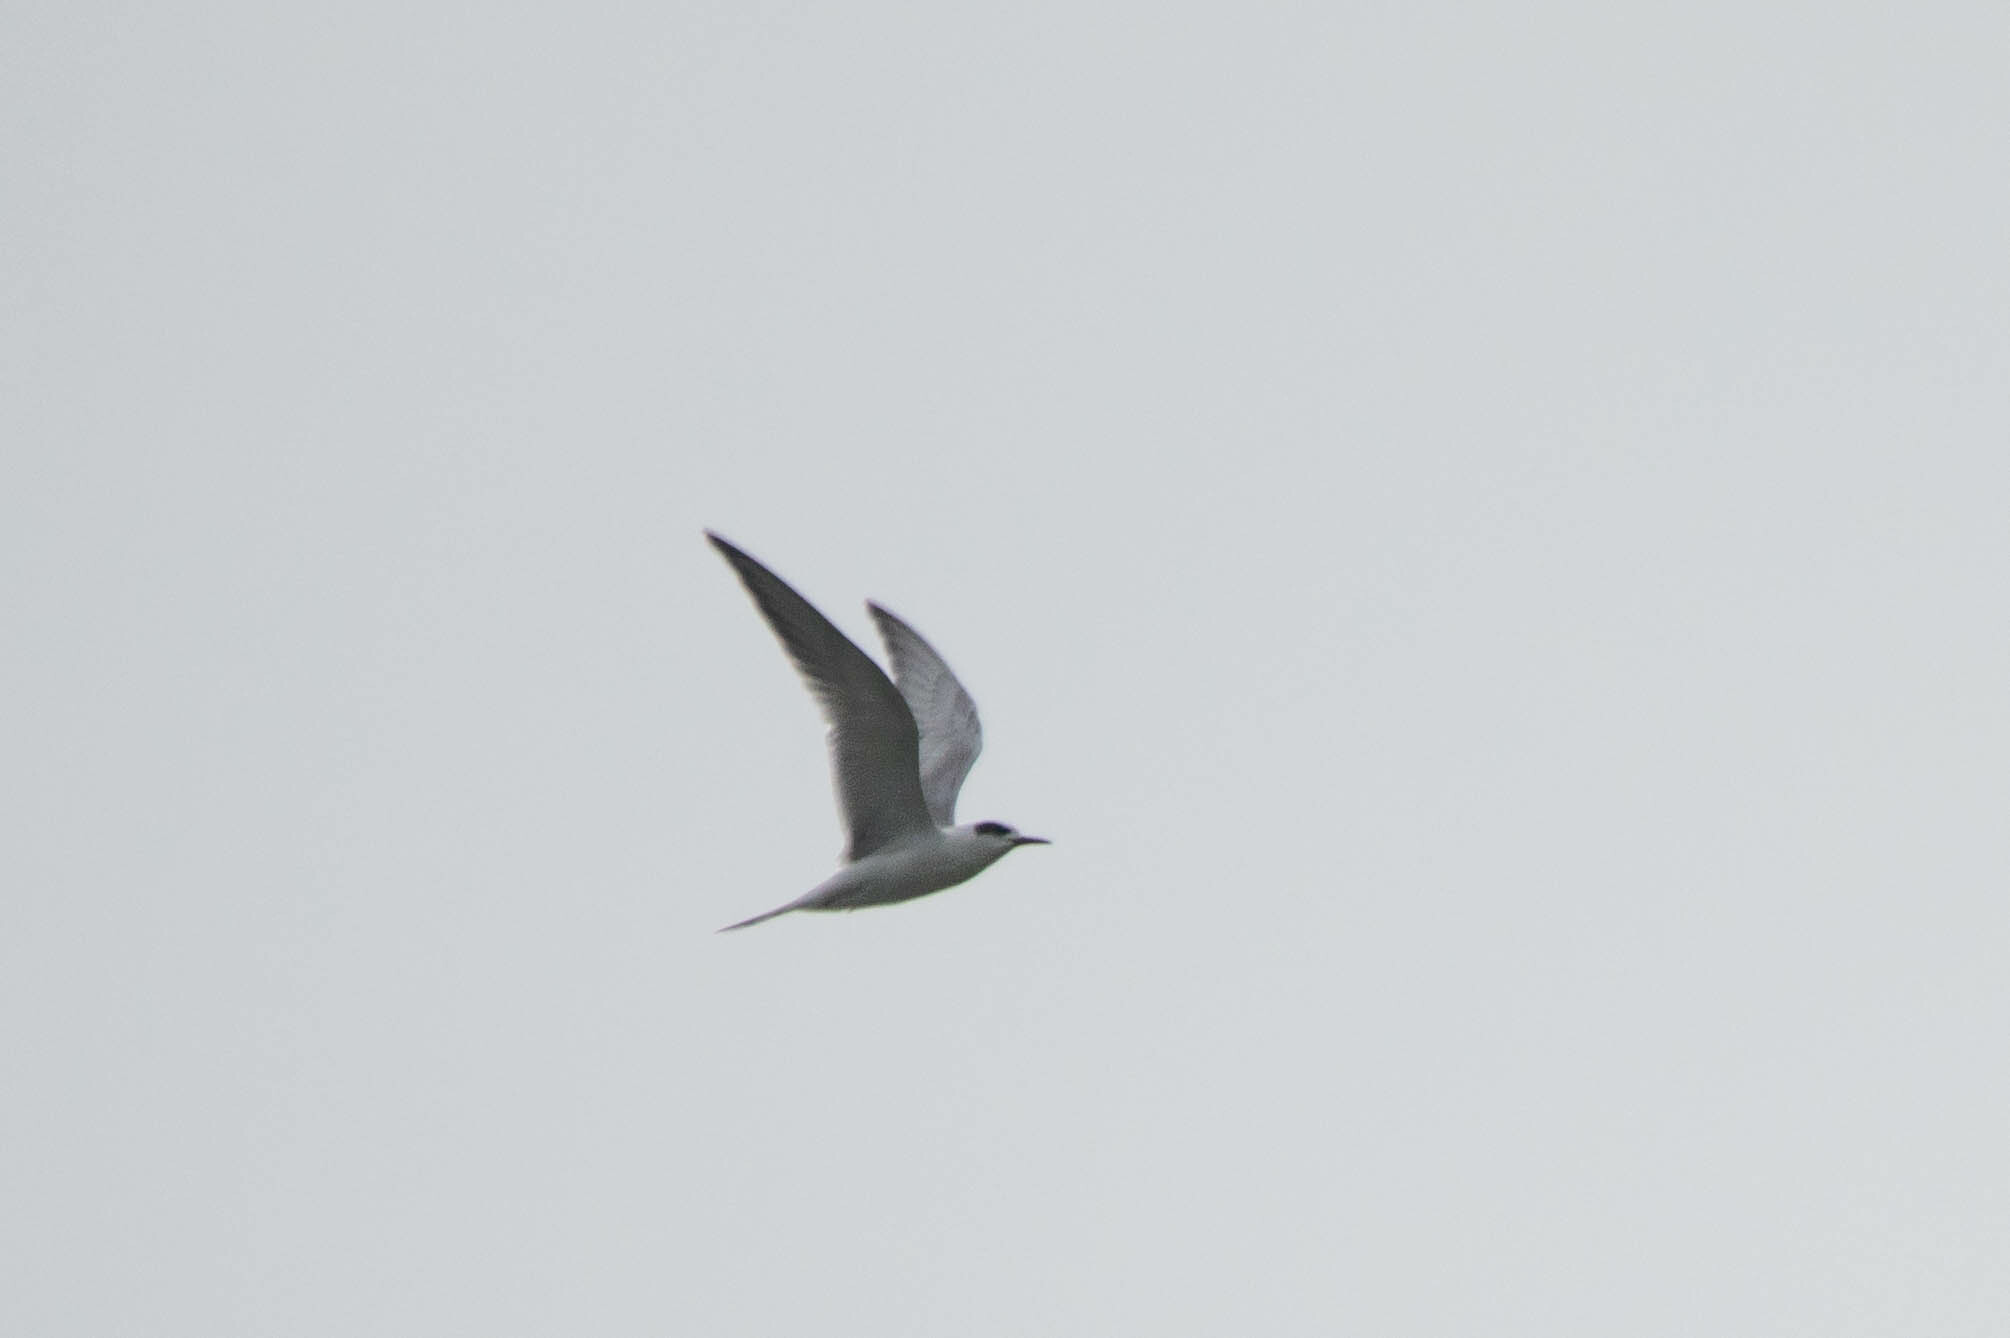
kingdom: Animalia
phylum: Chordata
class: Aves
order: Charadriiformes
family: Laridae
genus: Sterna
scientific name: Sterna forsteri
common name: Forster's tern
